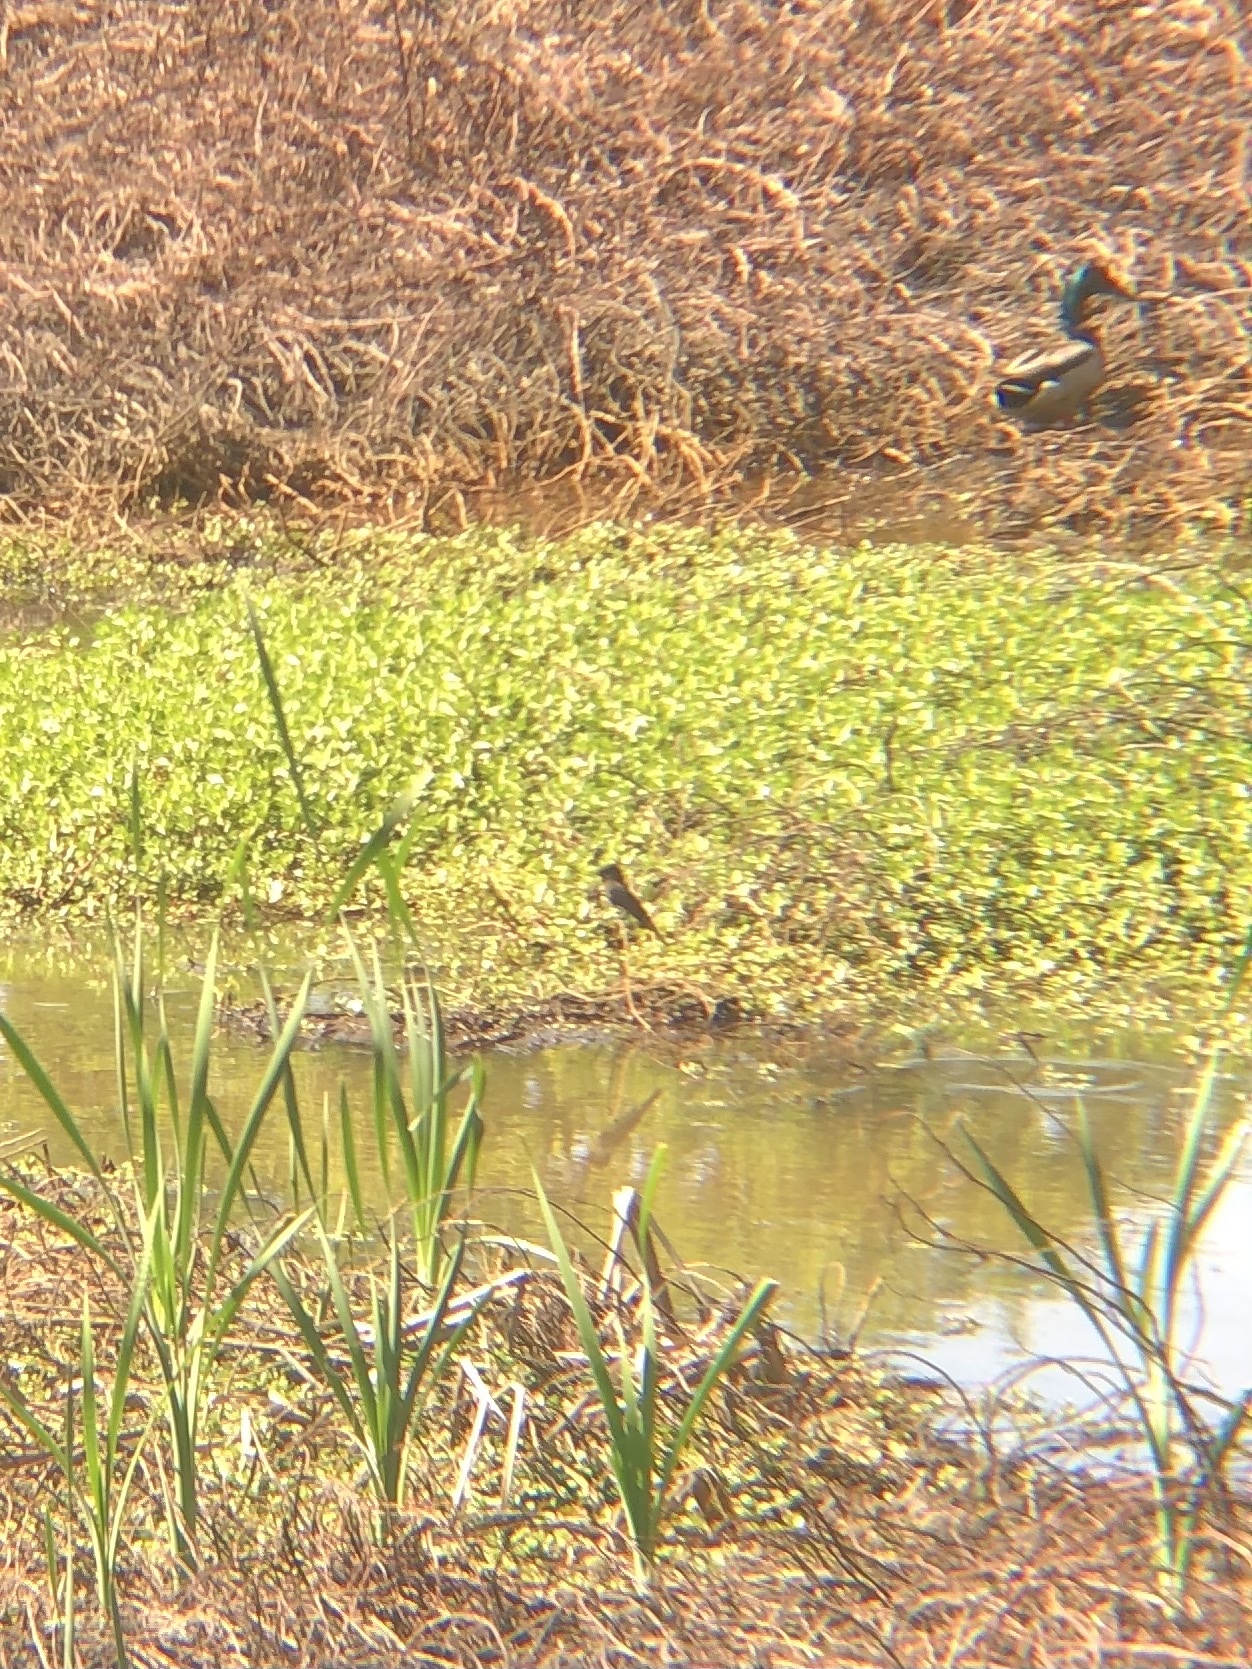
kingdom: Animalia
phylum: Chordata
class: Aves
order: Passeriformes
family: Tyrannidae
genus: Sayornis
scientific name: Sayornis nigricans
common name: Black phoebe
